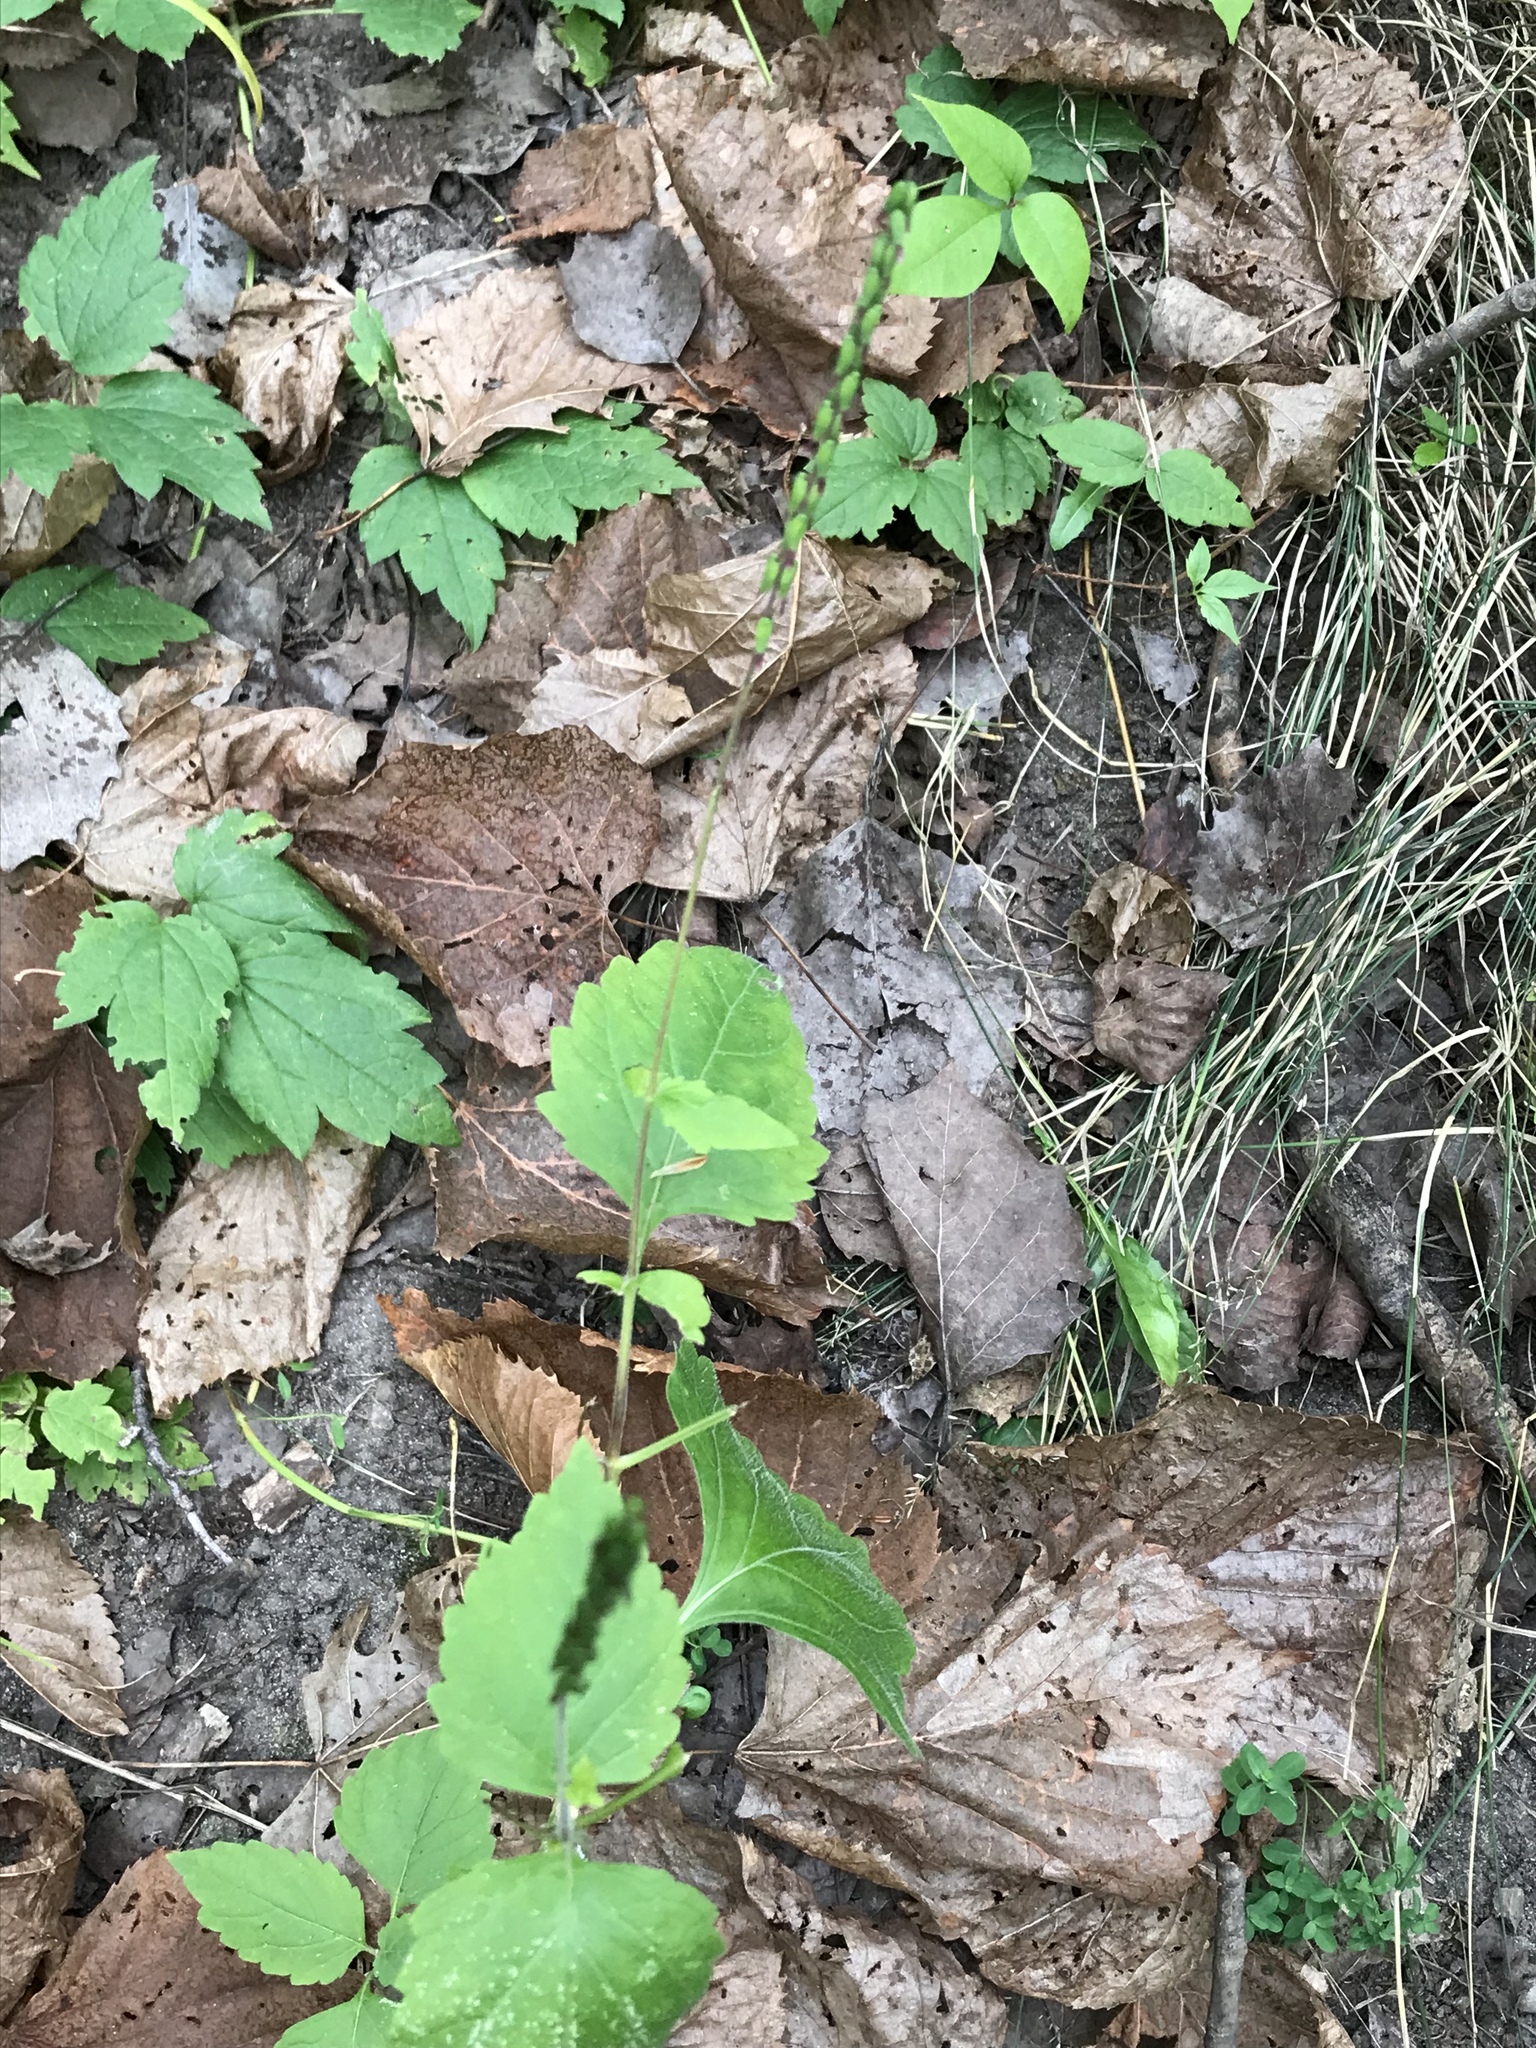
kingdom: Plantae
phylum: Tracheophyta
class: Magnoliopsida
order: Lamiales
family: Phrymaceae
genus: Phryma
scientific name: Phryma leptostachya
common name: American lopseed
